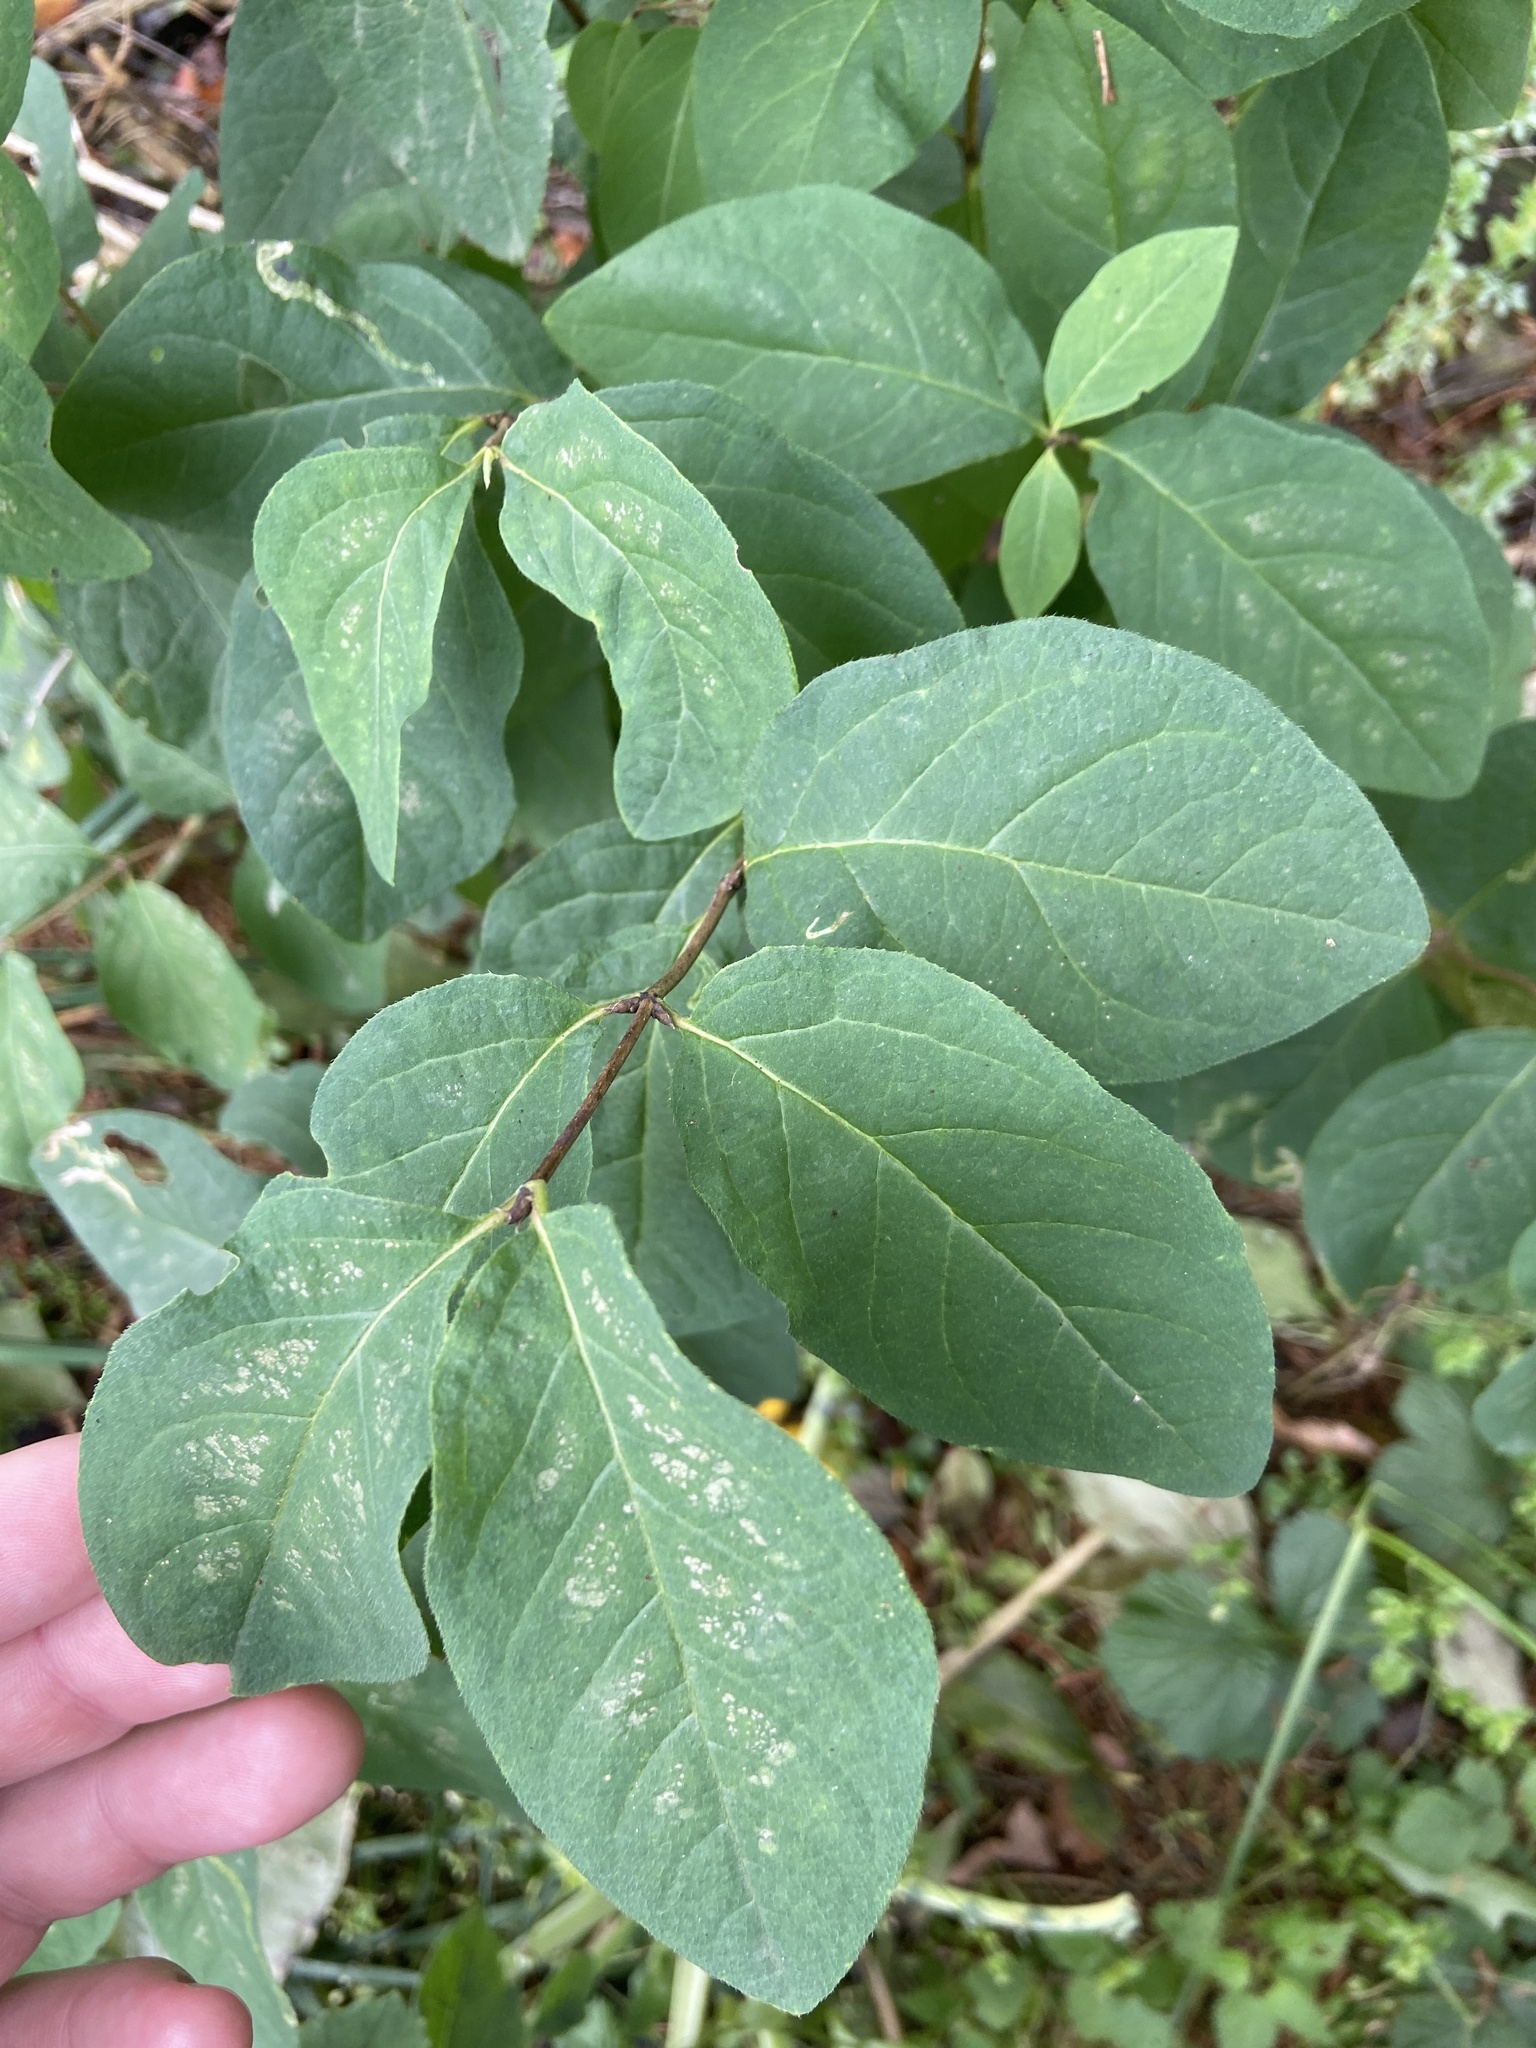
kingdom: Plantae
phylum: Tracheophyta
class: Magnoliopsida
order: Dipsacales
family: Caprifoliaceae
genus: Lonicera
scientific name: Lonicera xylosteum
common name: Fly honeysuckle
